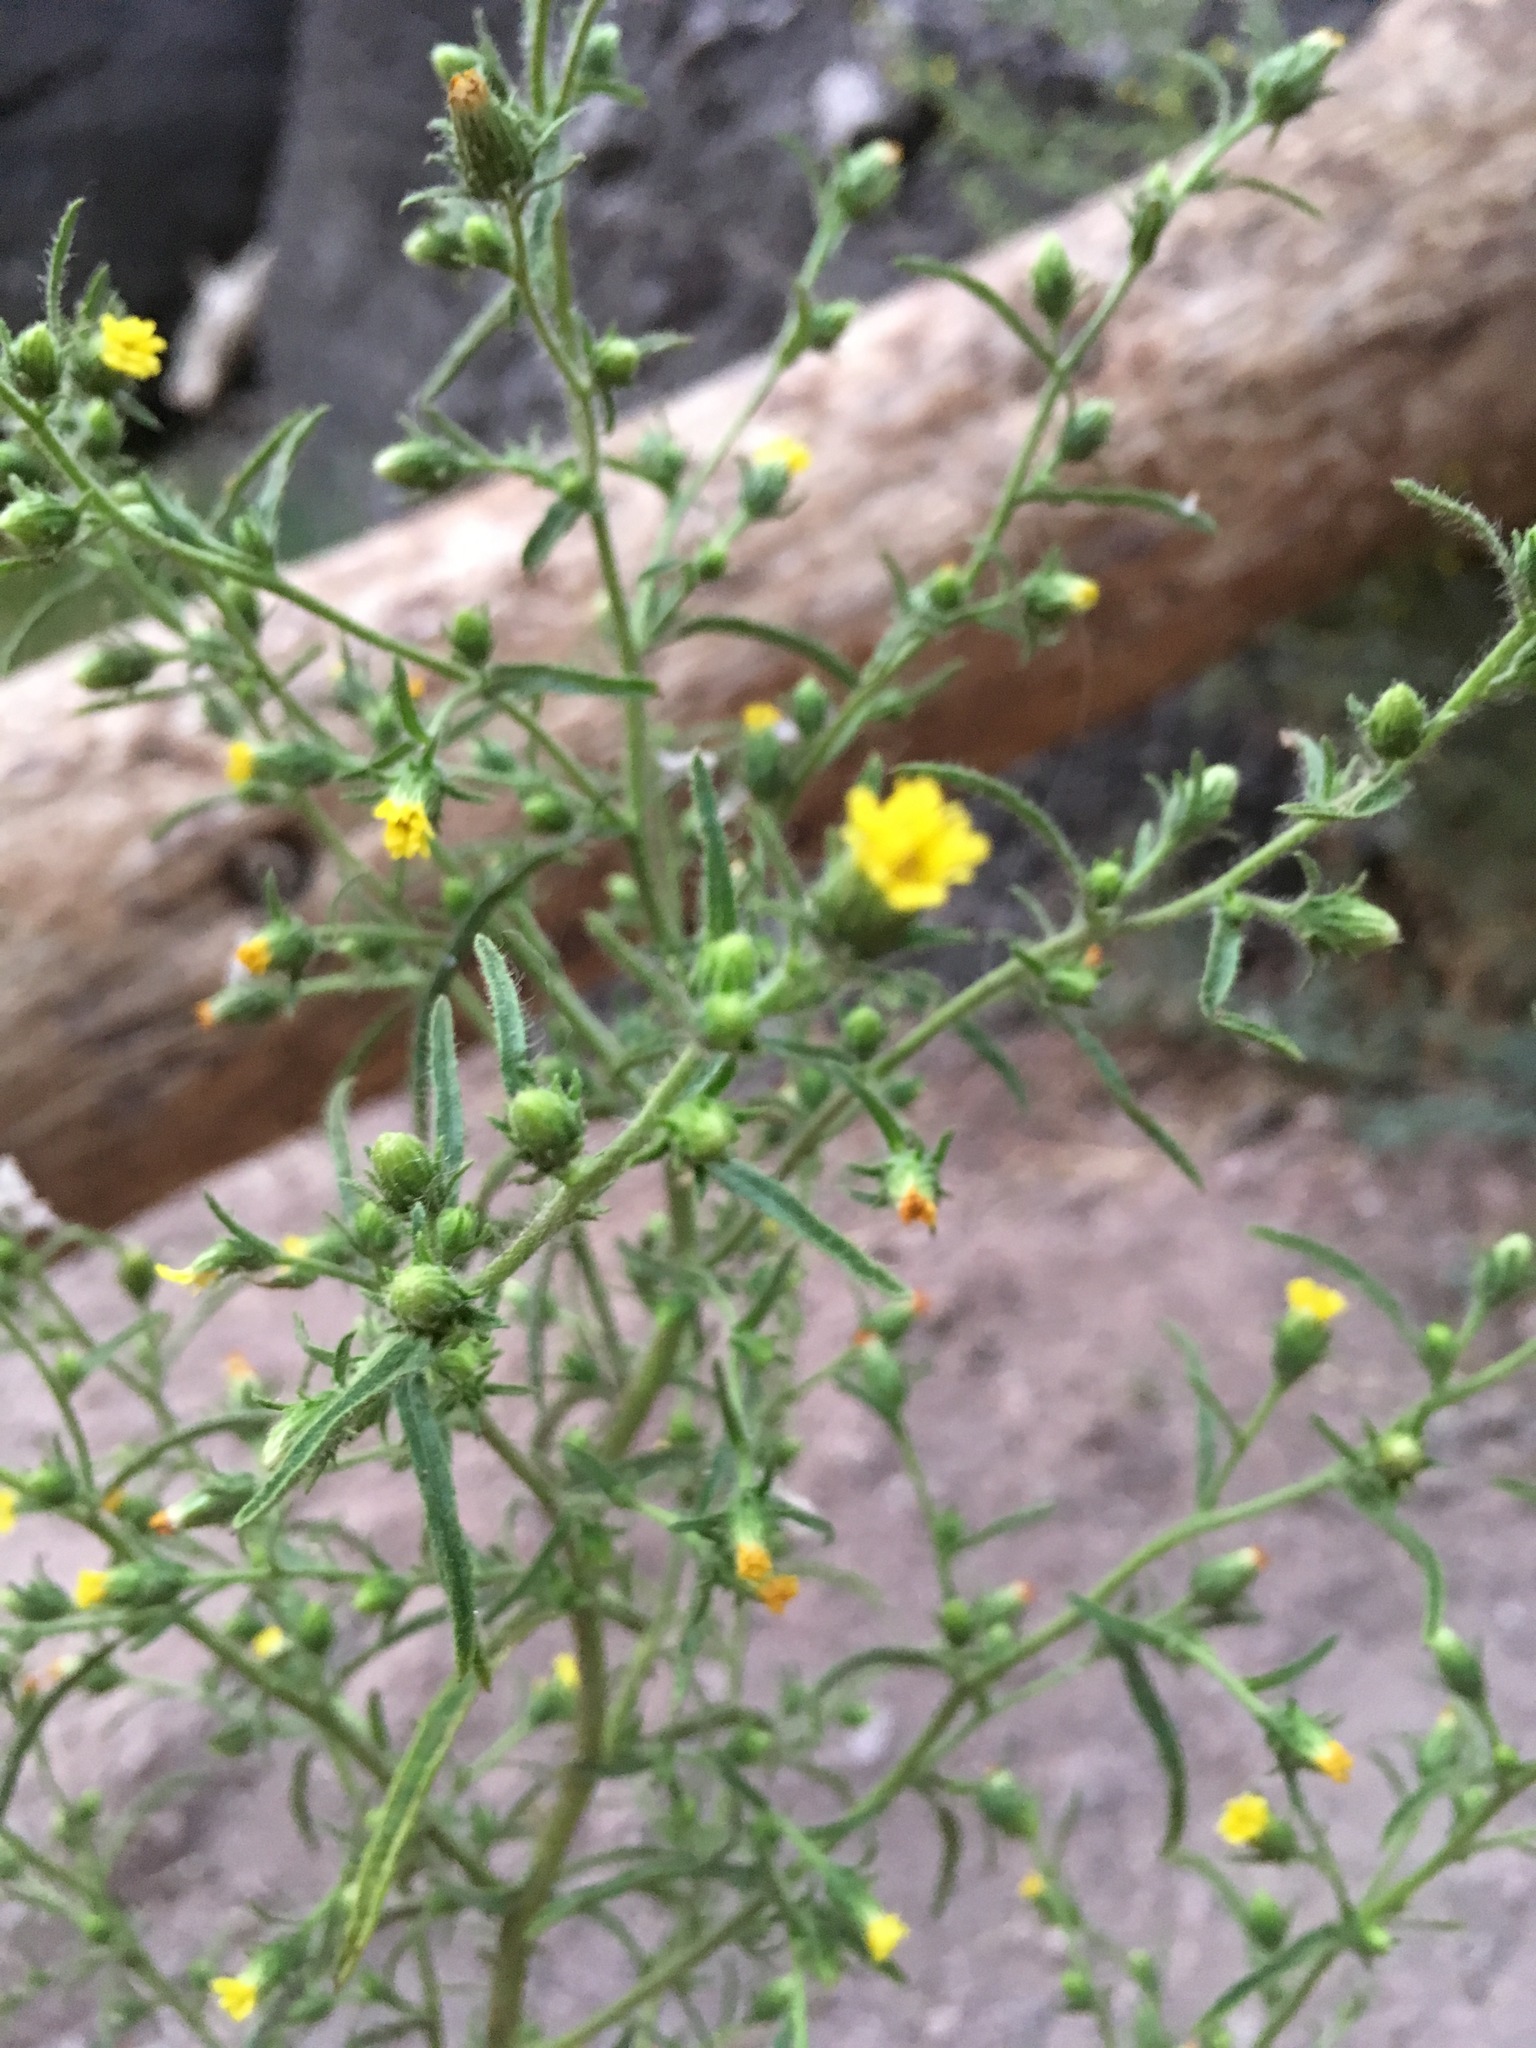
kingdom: Plantae
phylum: Tracheophyta
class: Magnoliopsida
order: Asterales
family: Asteraceae
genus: Dittrichia
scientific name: Dittrichia graveolens
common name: Stinking fleabane
